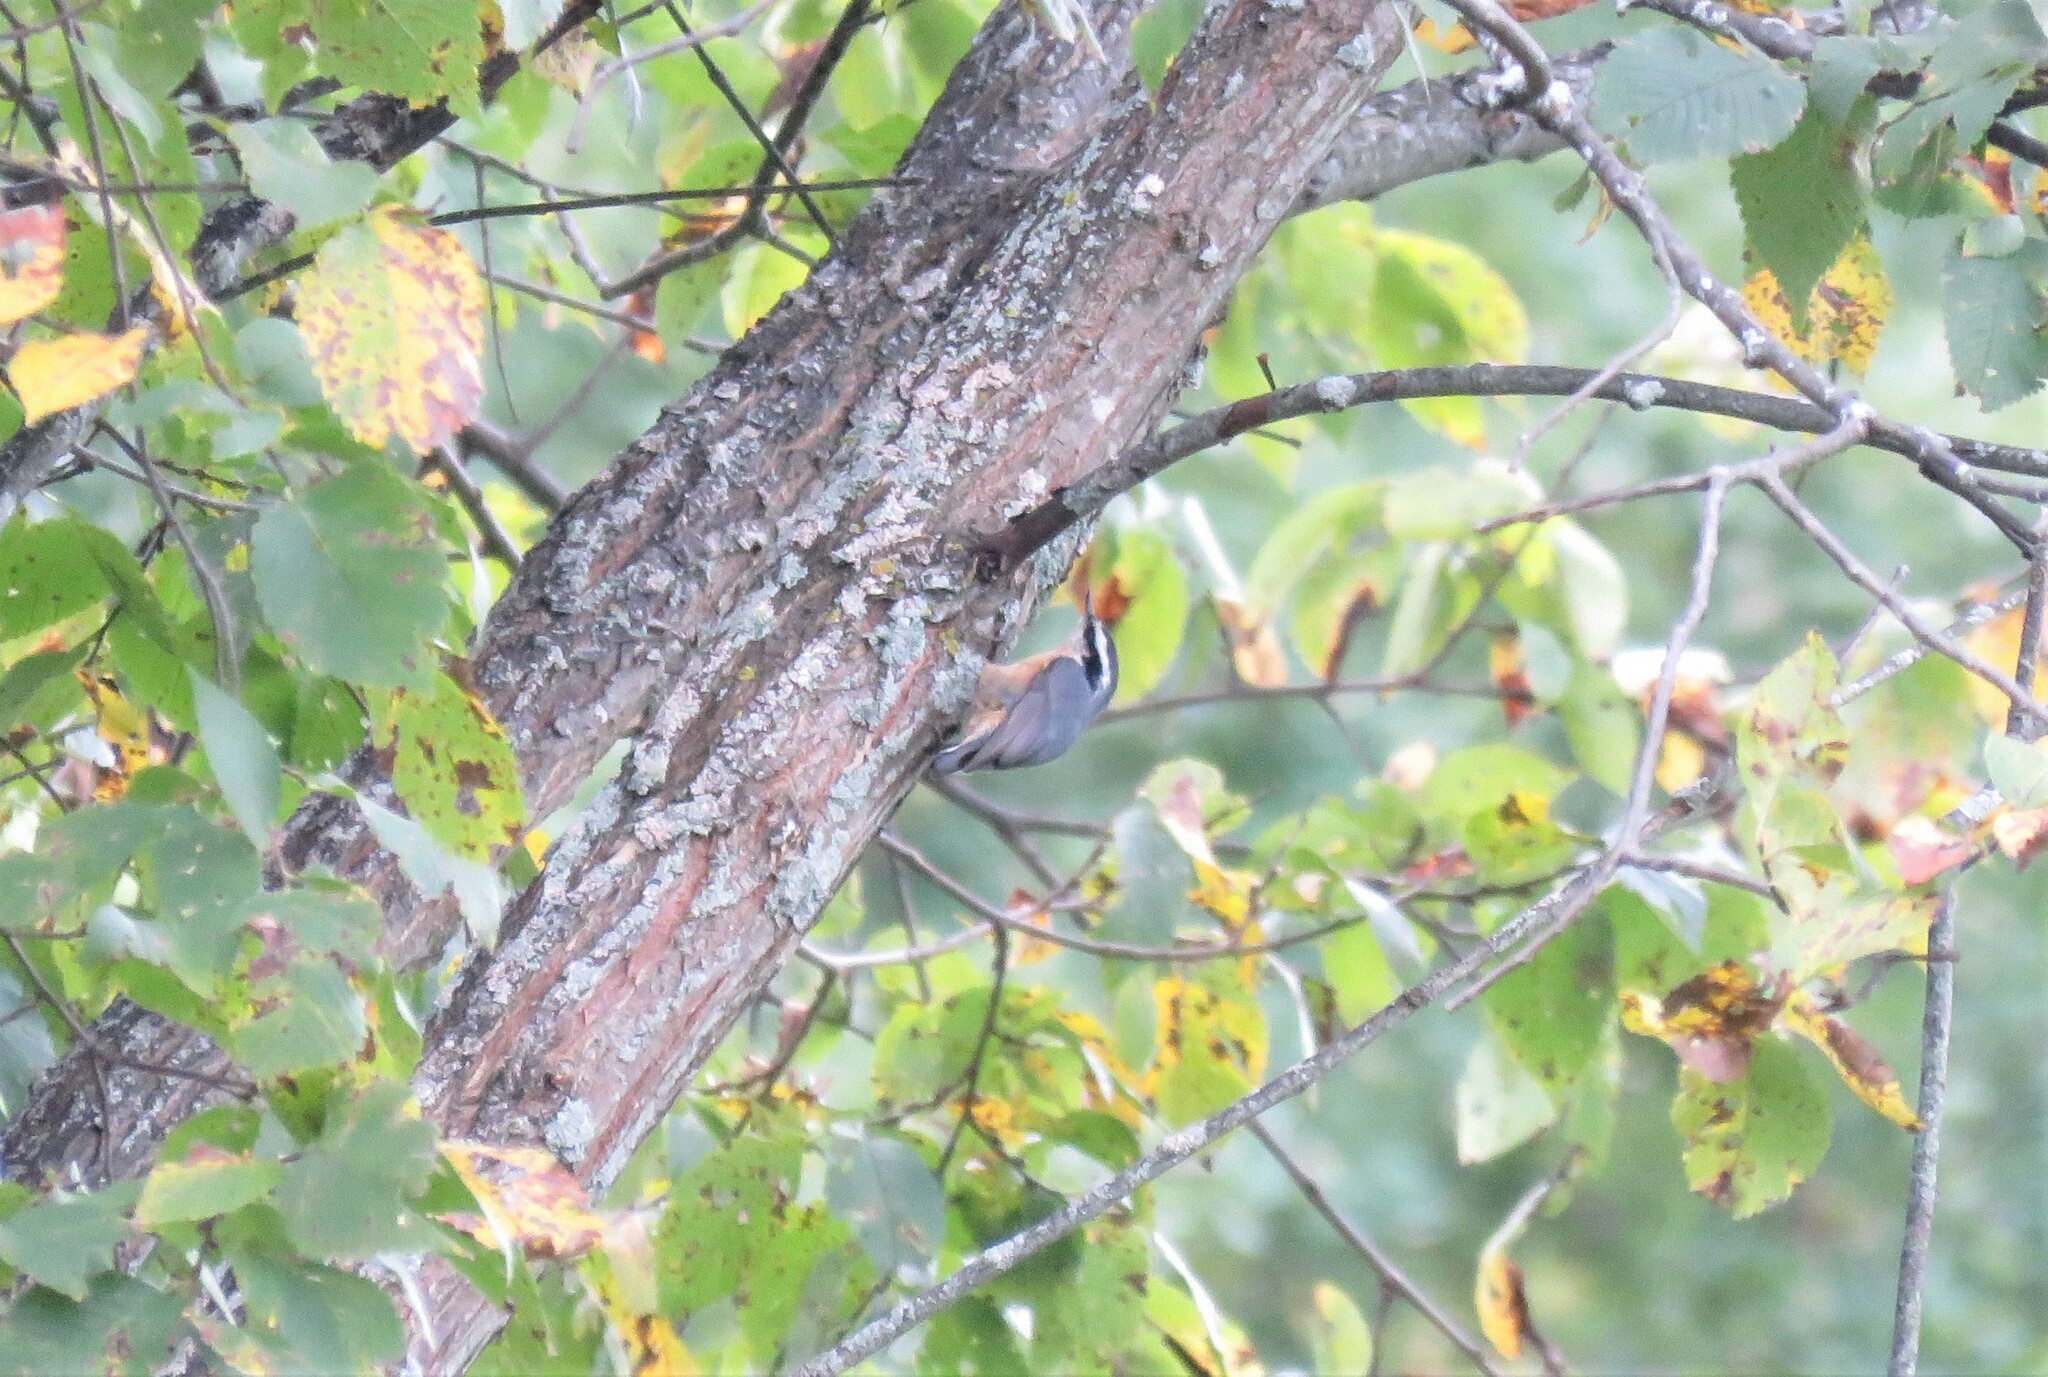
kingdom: Animalia
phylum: Chordata
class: Aves
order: Passeriformes
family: Sittidae
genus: Sitta
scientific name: Sitta canadensis
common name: Red-breasted nuthatch
